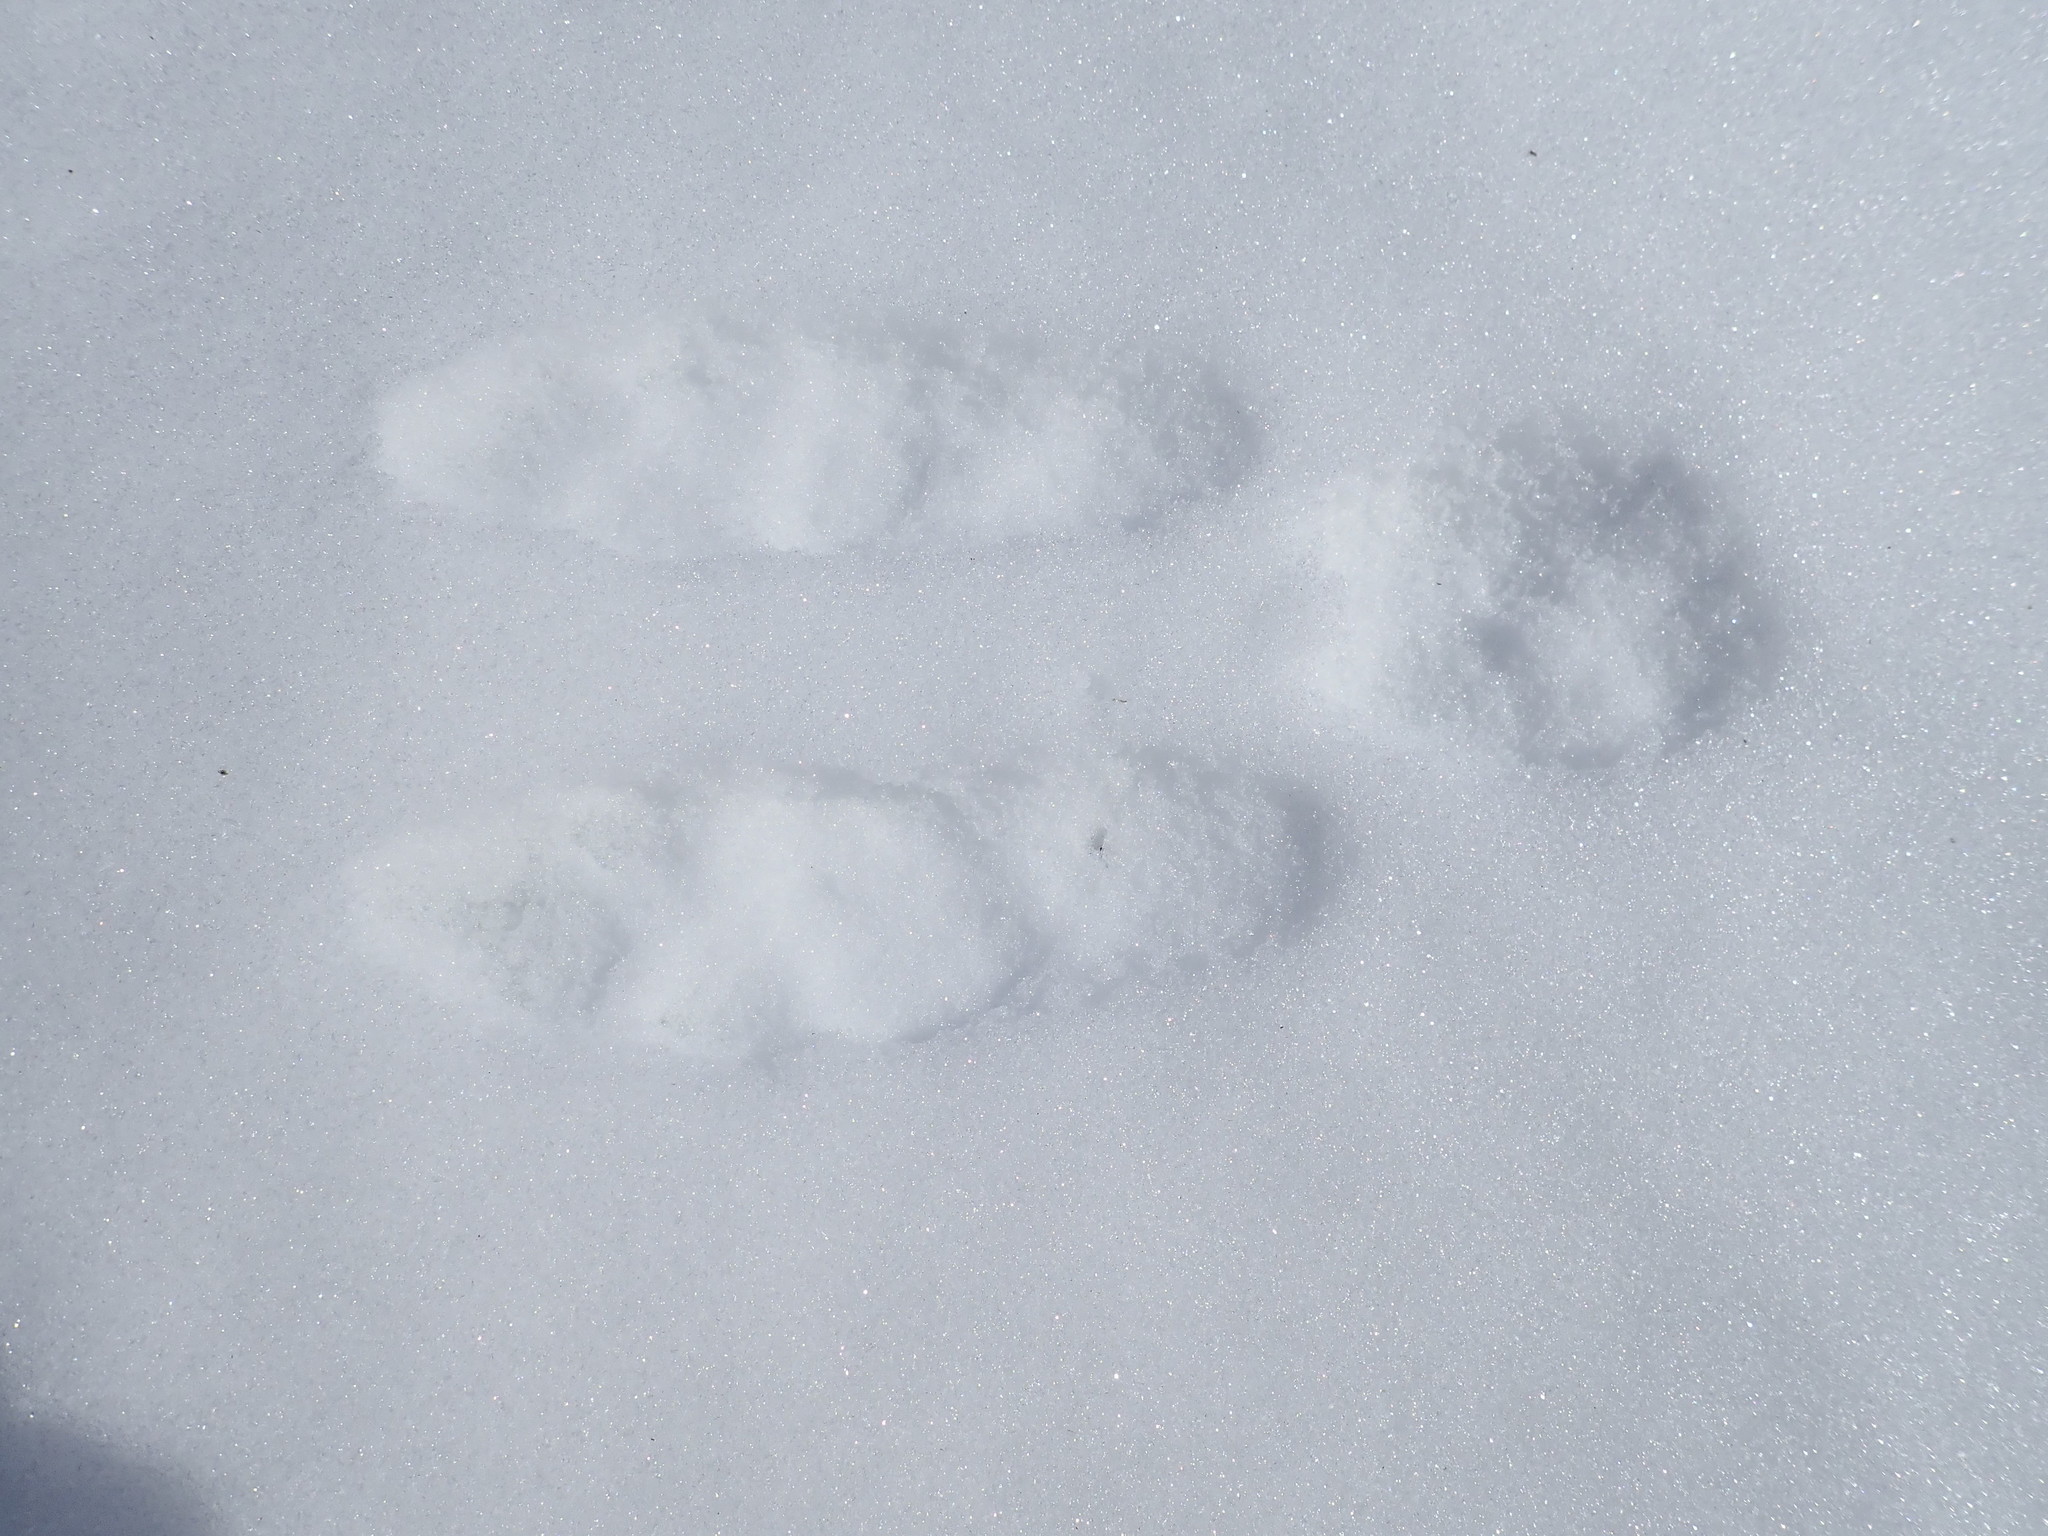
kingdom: Animalia
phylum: Chordata
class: Mammalia
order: Lagomorpha
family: Leporidae
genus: Lepus
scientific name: Lepus americanus
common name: Snowshoe hare
